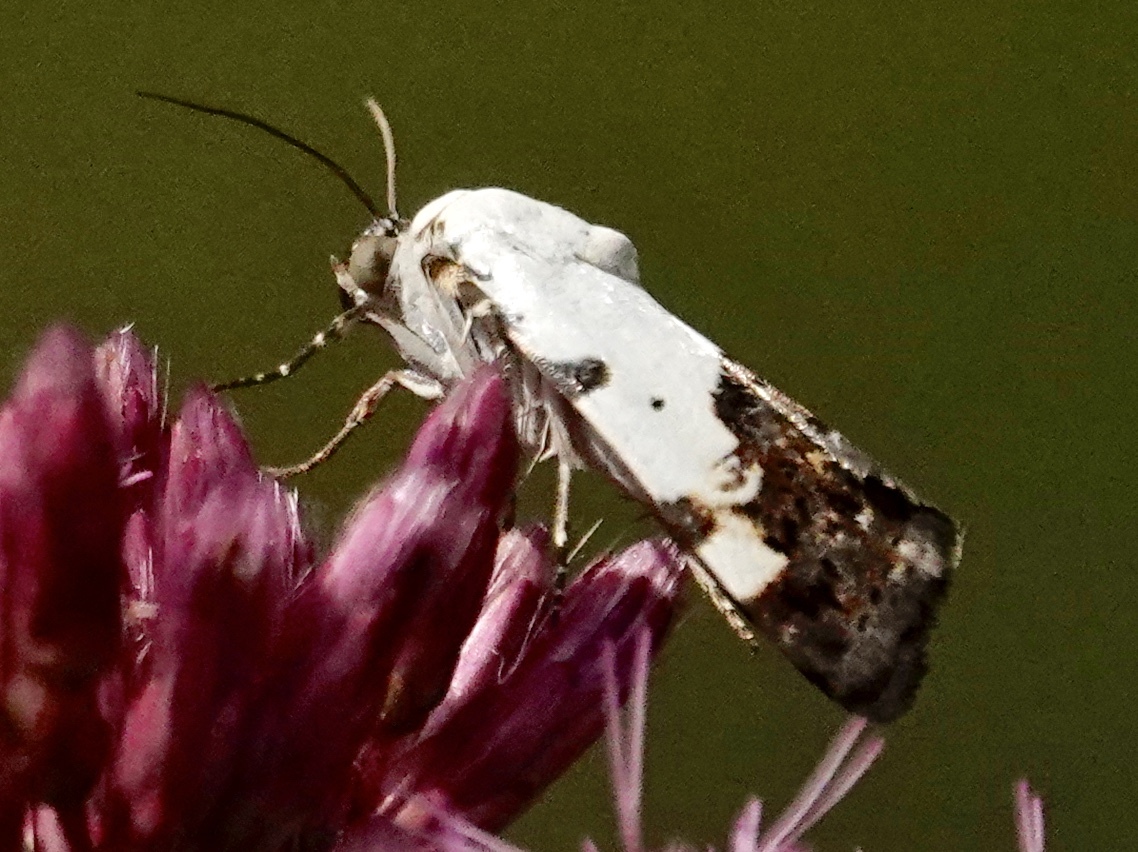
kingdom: Animalia
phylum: Arthropoda
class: Insecta
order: Lepidoptera
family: Noctuidae
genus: Acontia
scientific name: Acontia aprica
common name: Nun
